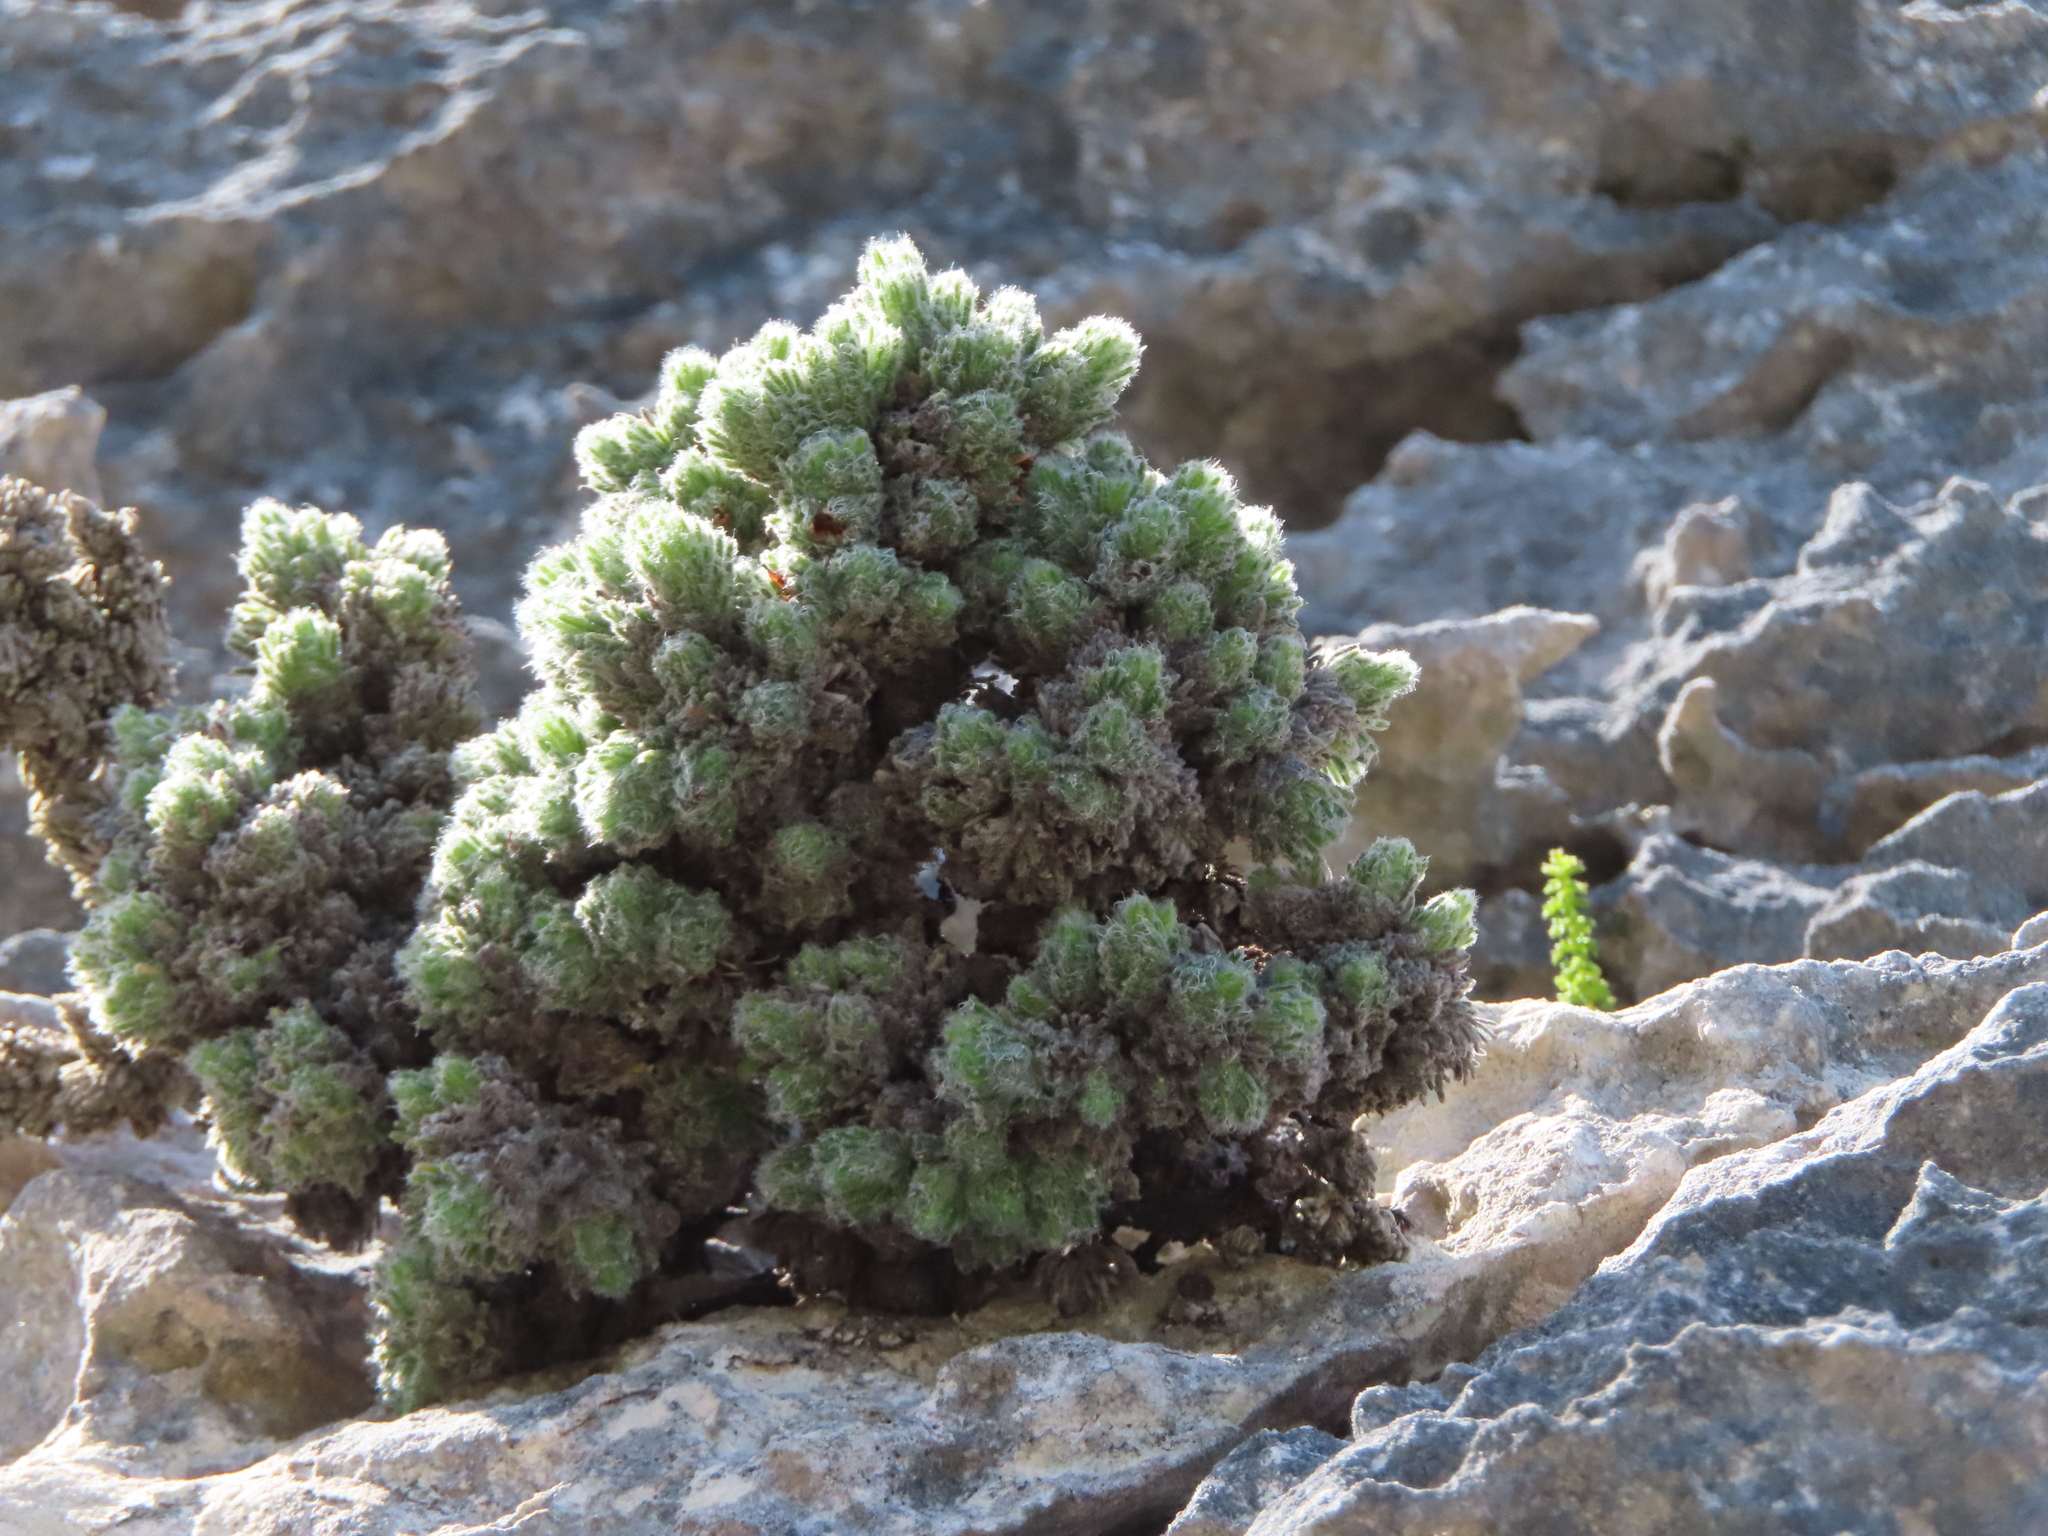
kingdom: Plantae
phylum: Tracheophyta
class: Magnoliopsida
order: Ericales
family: Ericaceae
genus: Erica
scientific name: Erica occulta
